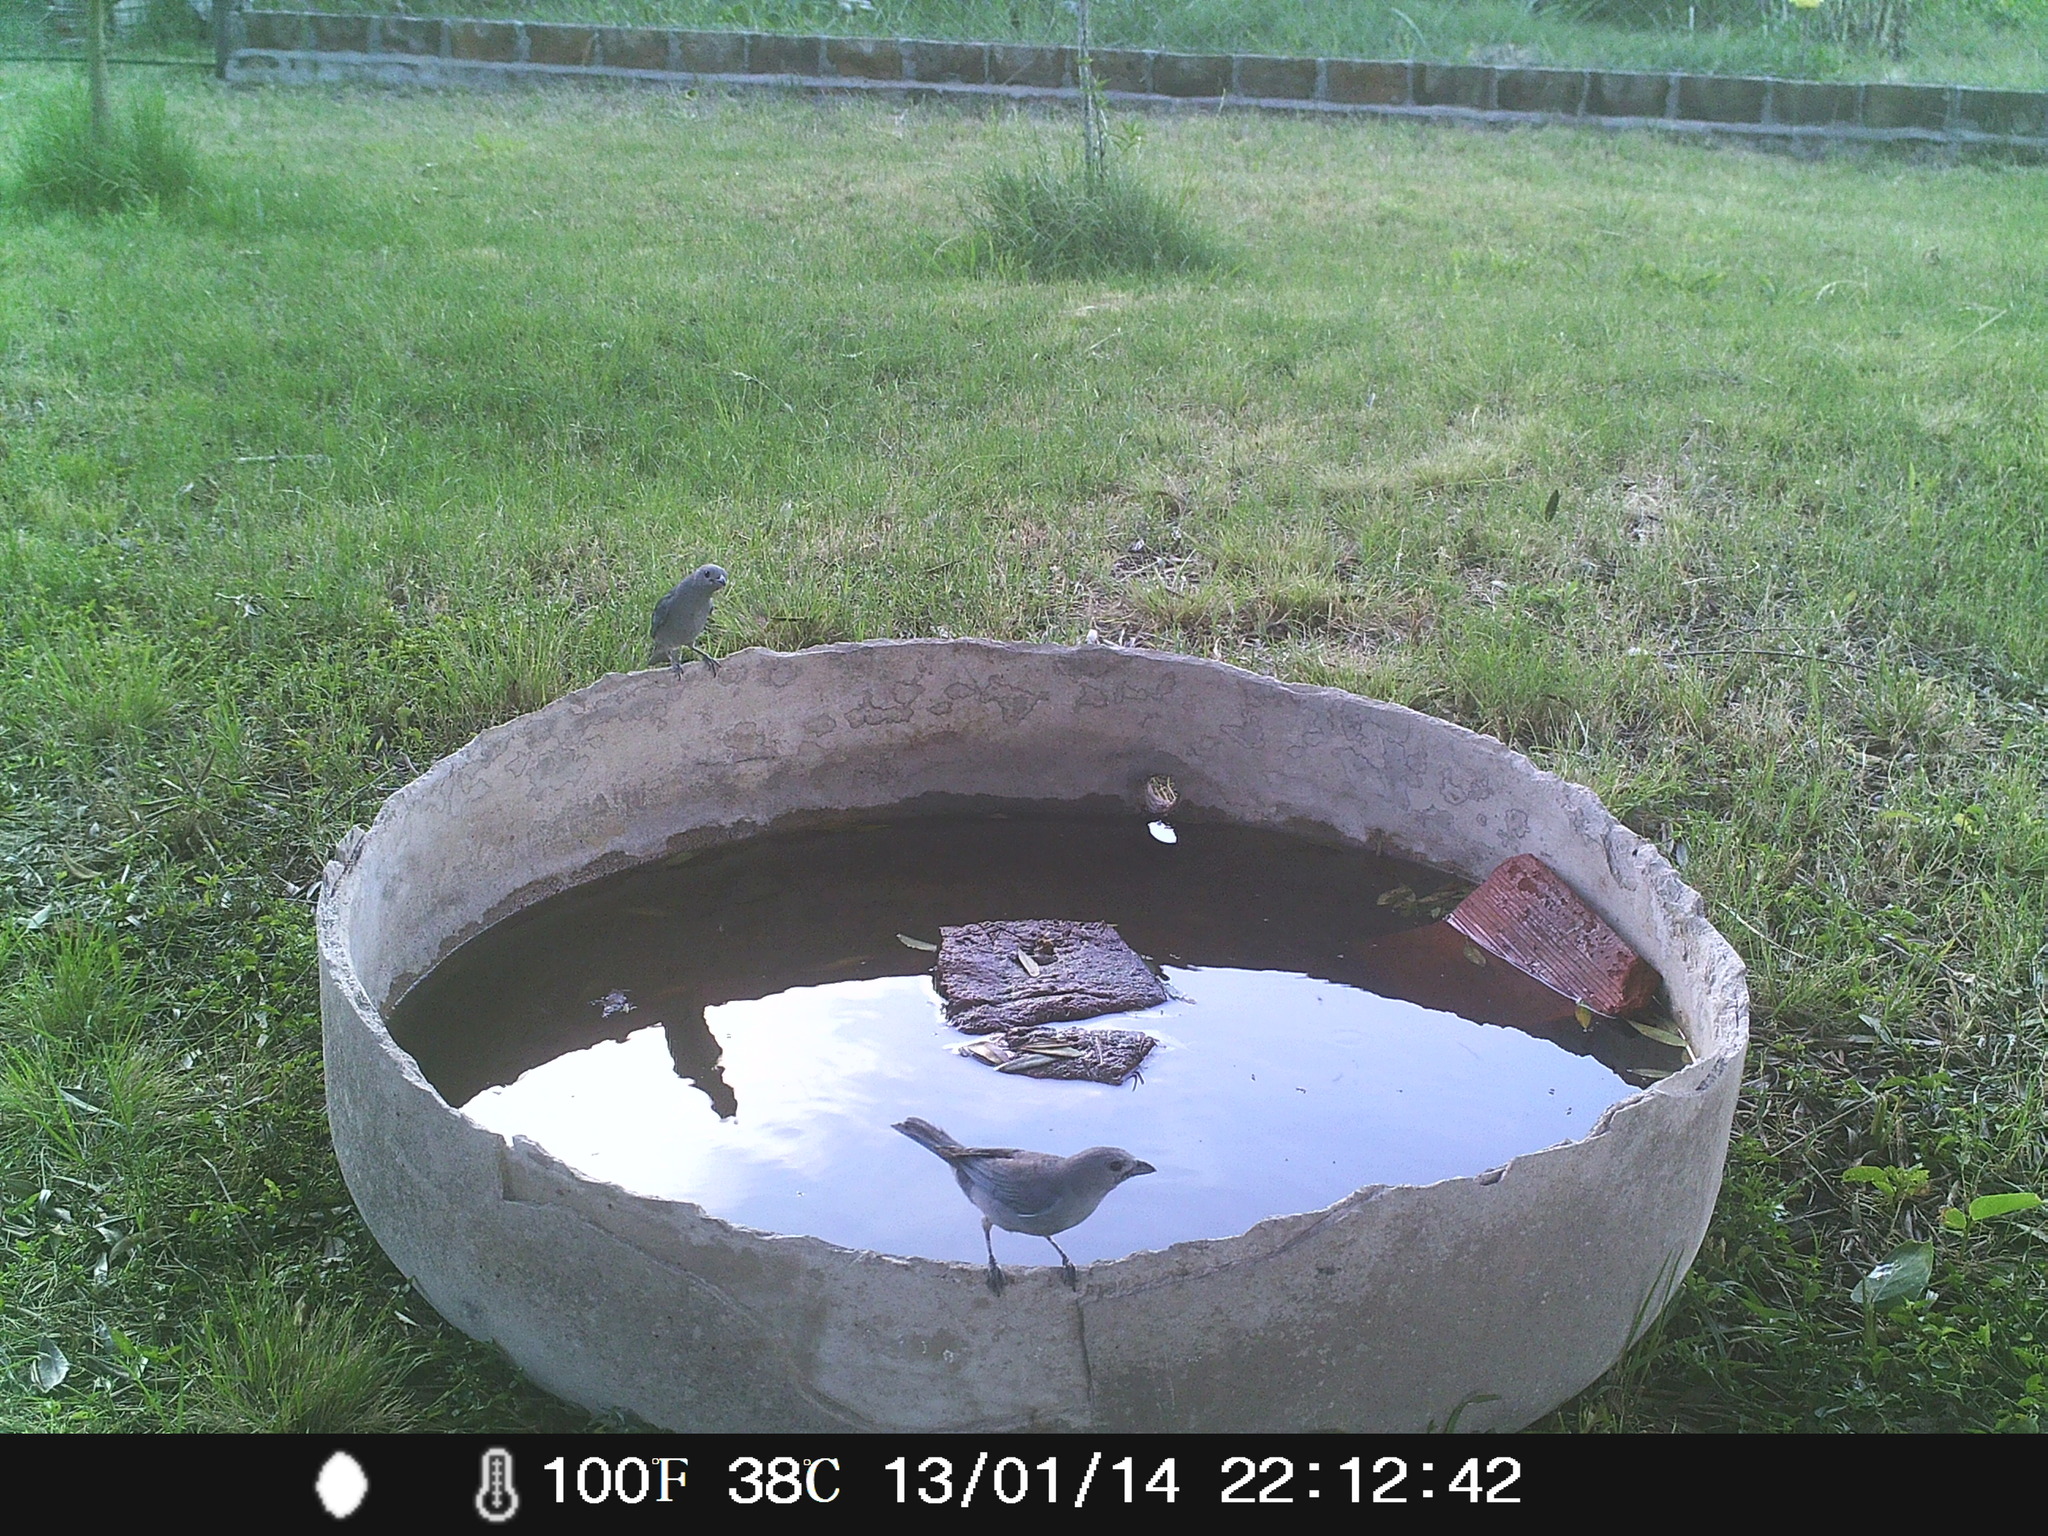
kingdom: Animalia
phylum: Chordata
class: Aves
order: Passeriformes
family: Thraupidae
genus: Thraupis
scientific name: Thraupis sayaca
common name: Sayaca tanager
